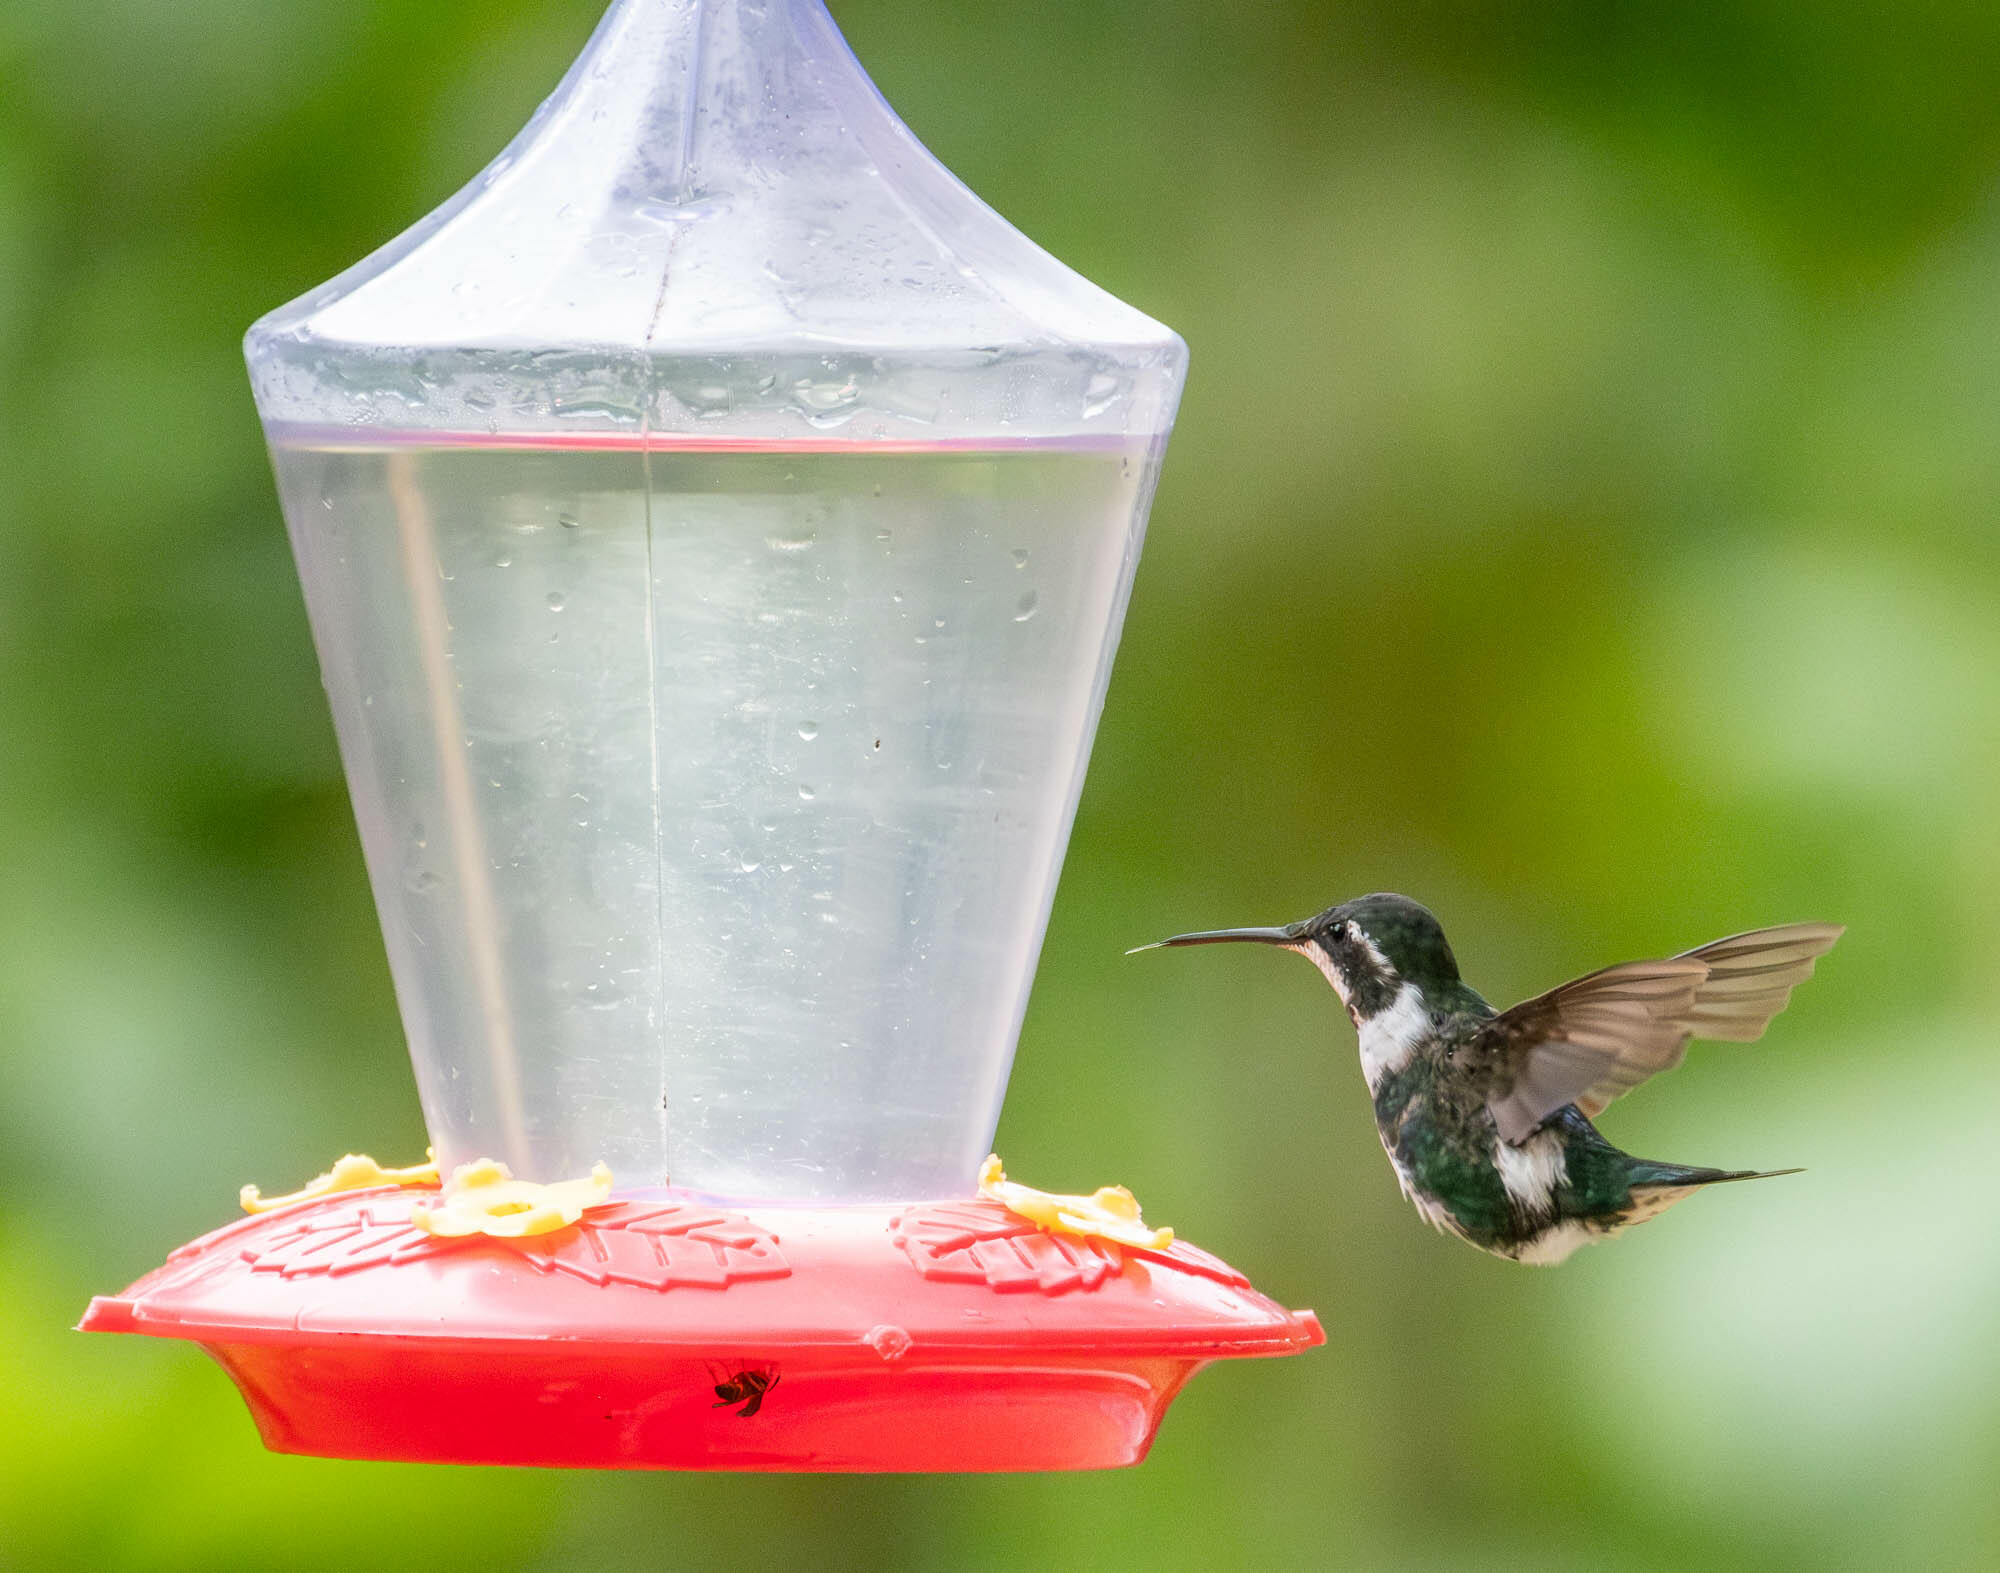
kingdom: Animalia
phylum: Chordata
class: Aves
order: Apodiformes
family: Trochilidae
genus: Chaetocercus
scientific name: Chaetocercus mulsant
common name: White-bellied woodstar
